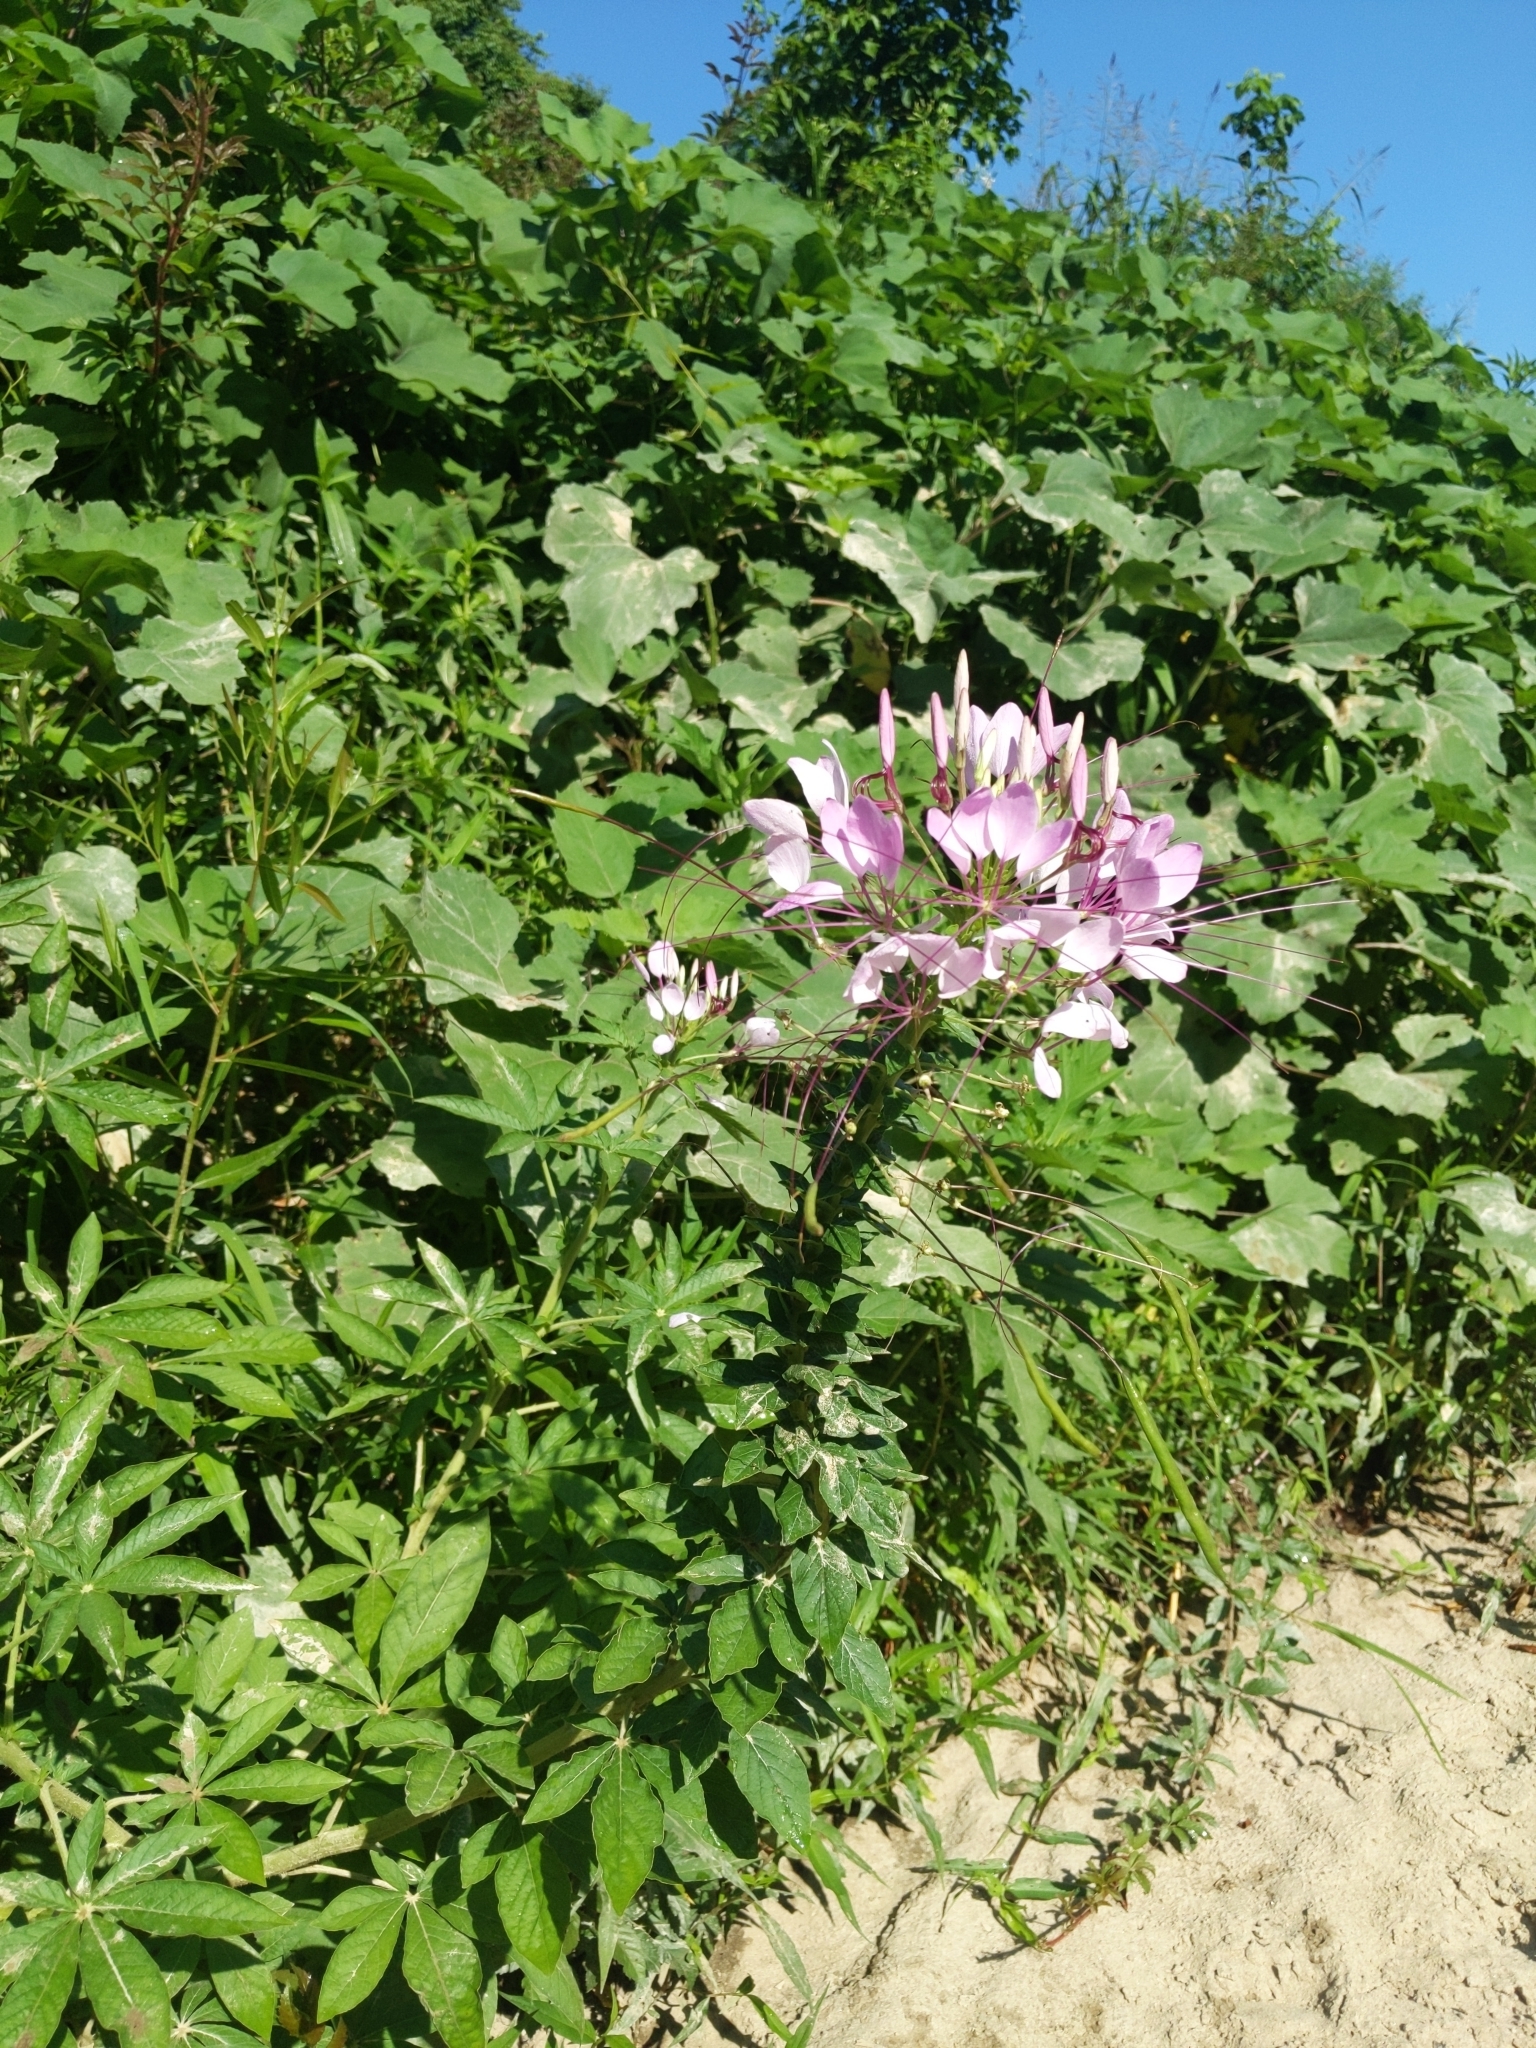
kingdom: Plantae
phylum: Tracheophyta
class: Magnoliopsida
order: Brassicales
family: Cleomaceae
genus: Gynandropsis
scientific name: Gynandropsis gynandra
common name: Spiderwisp
